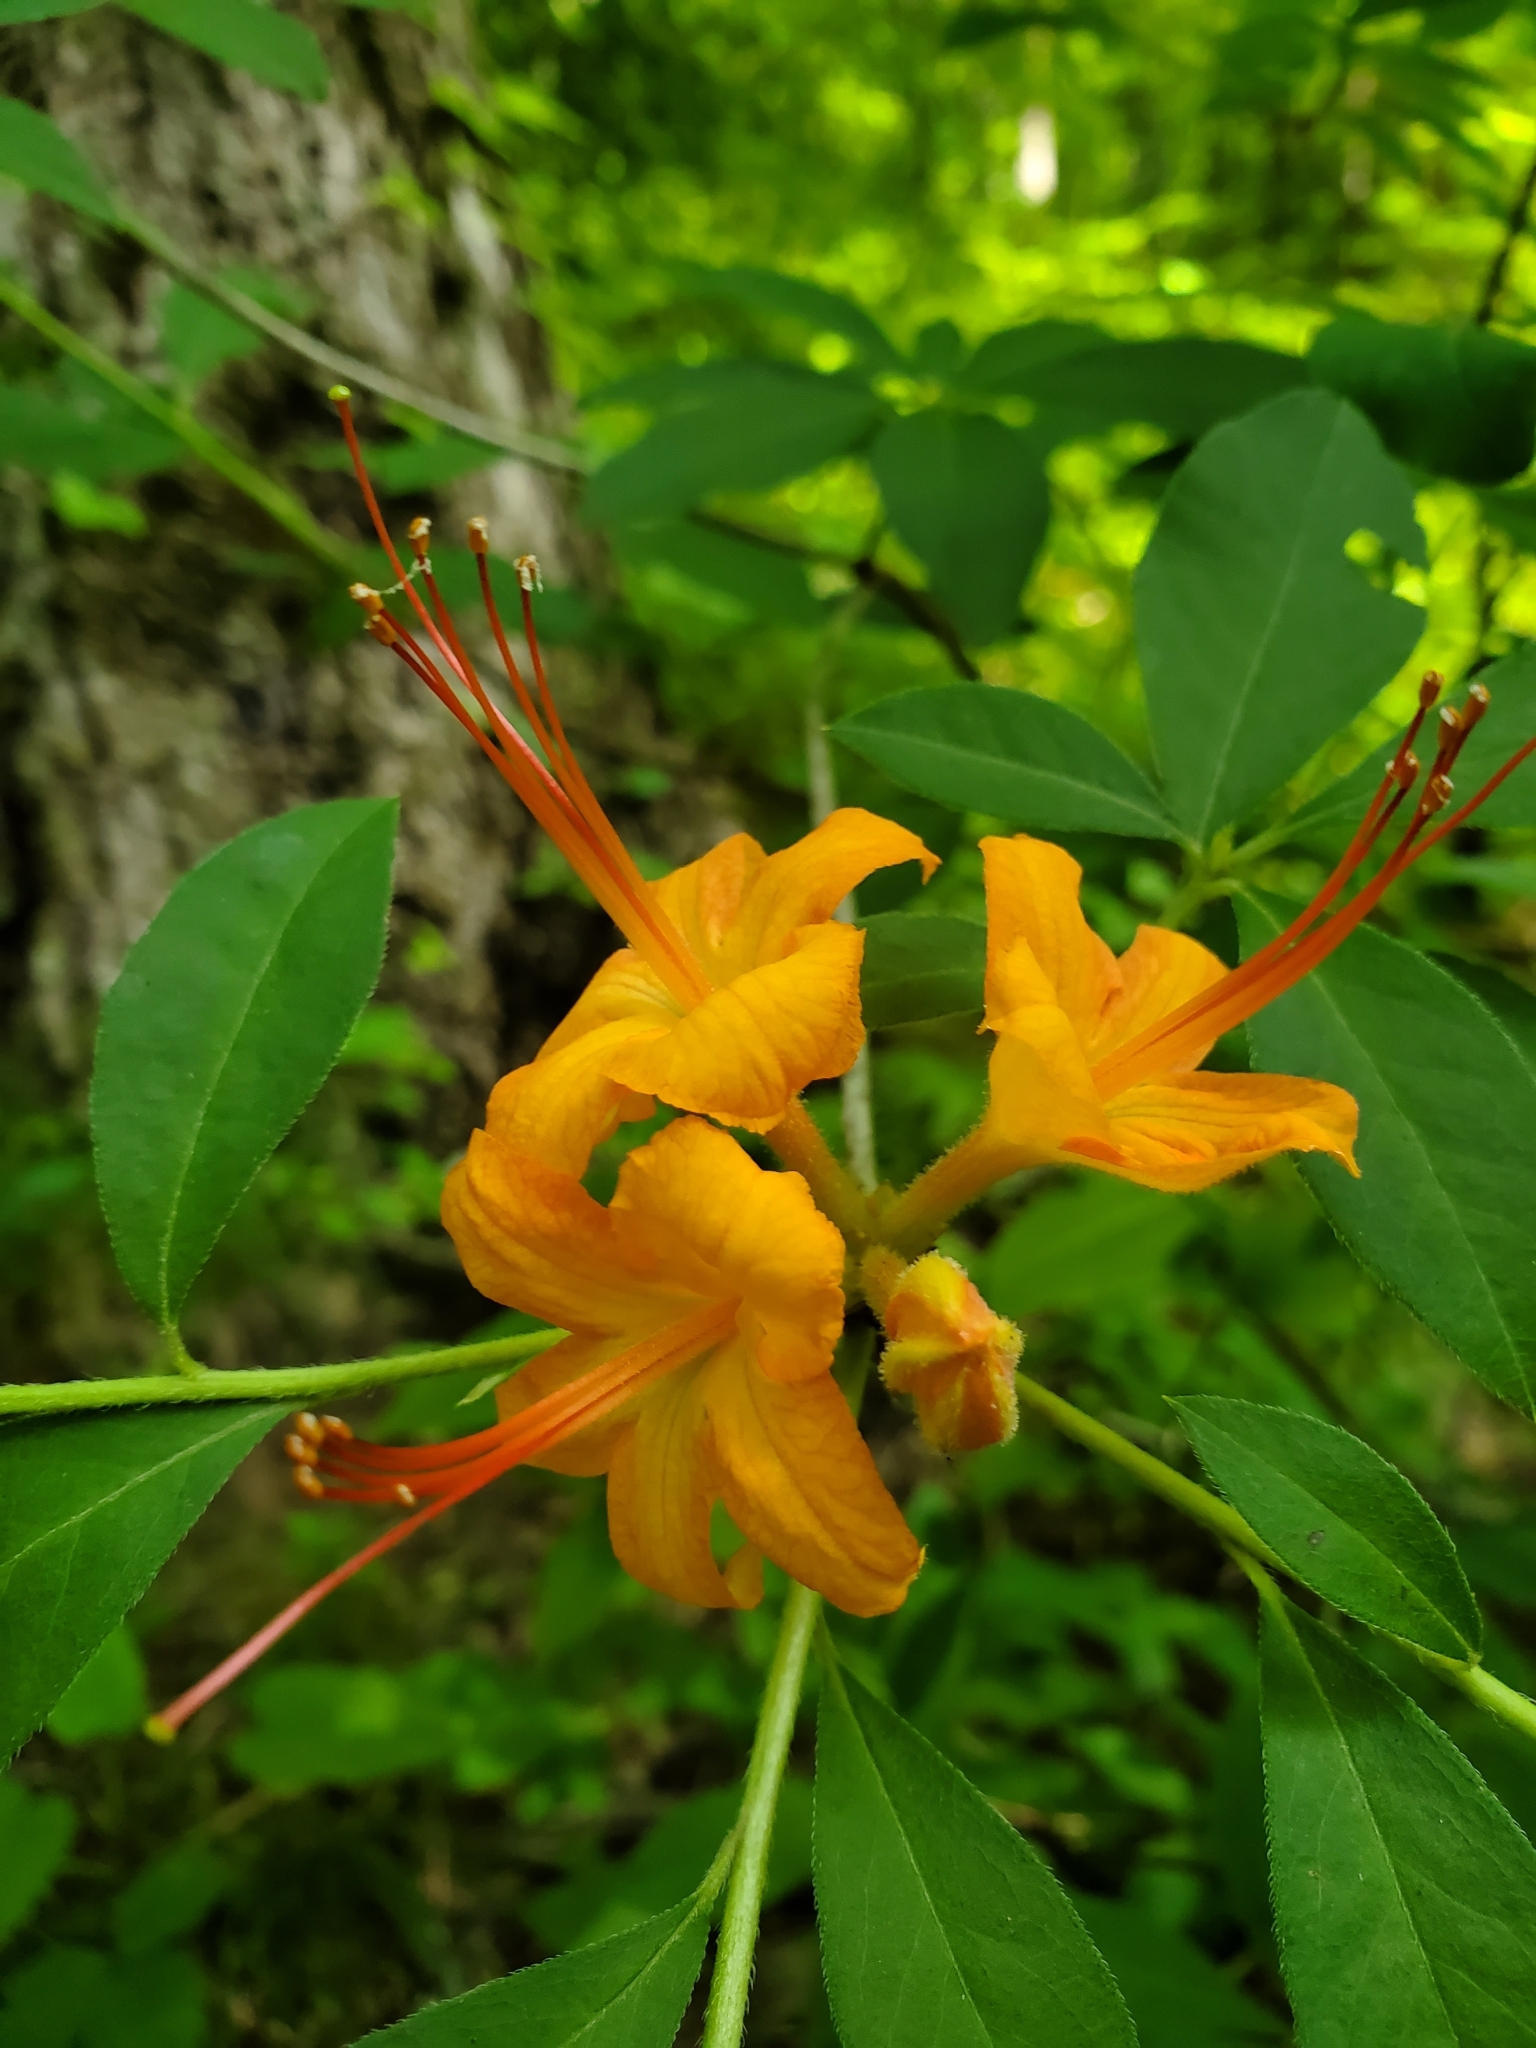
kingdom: Plantae
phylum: Tracheophyta
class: Magnoliopsida
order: Ericales
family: Ericaceae
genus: Rhododendron
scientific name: Rhododendron calendulaceum
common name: Flame azalea
